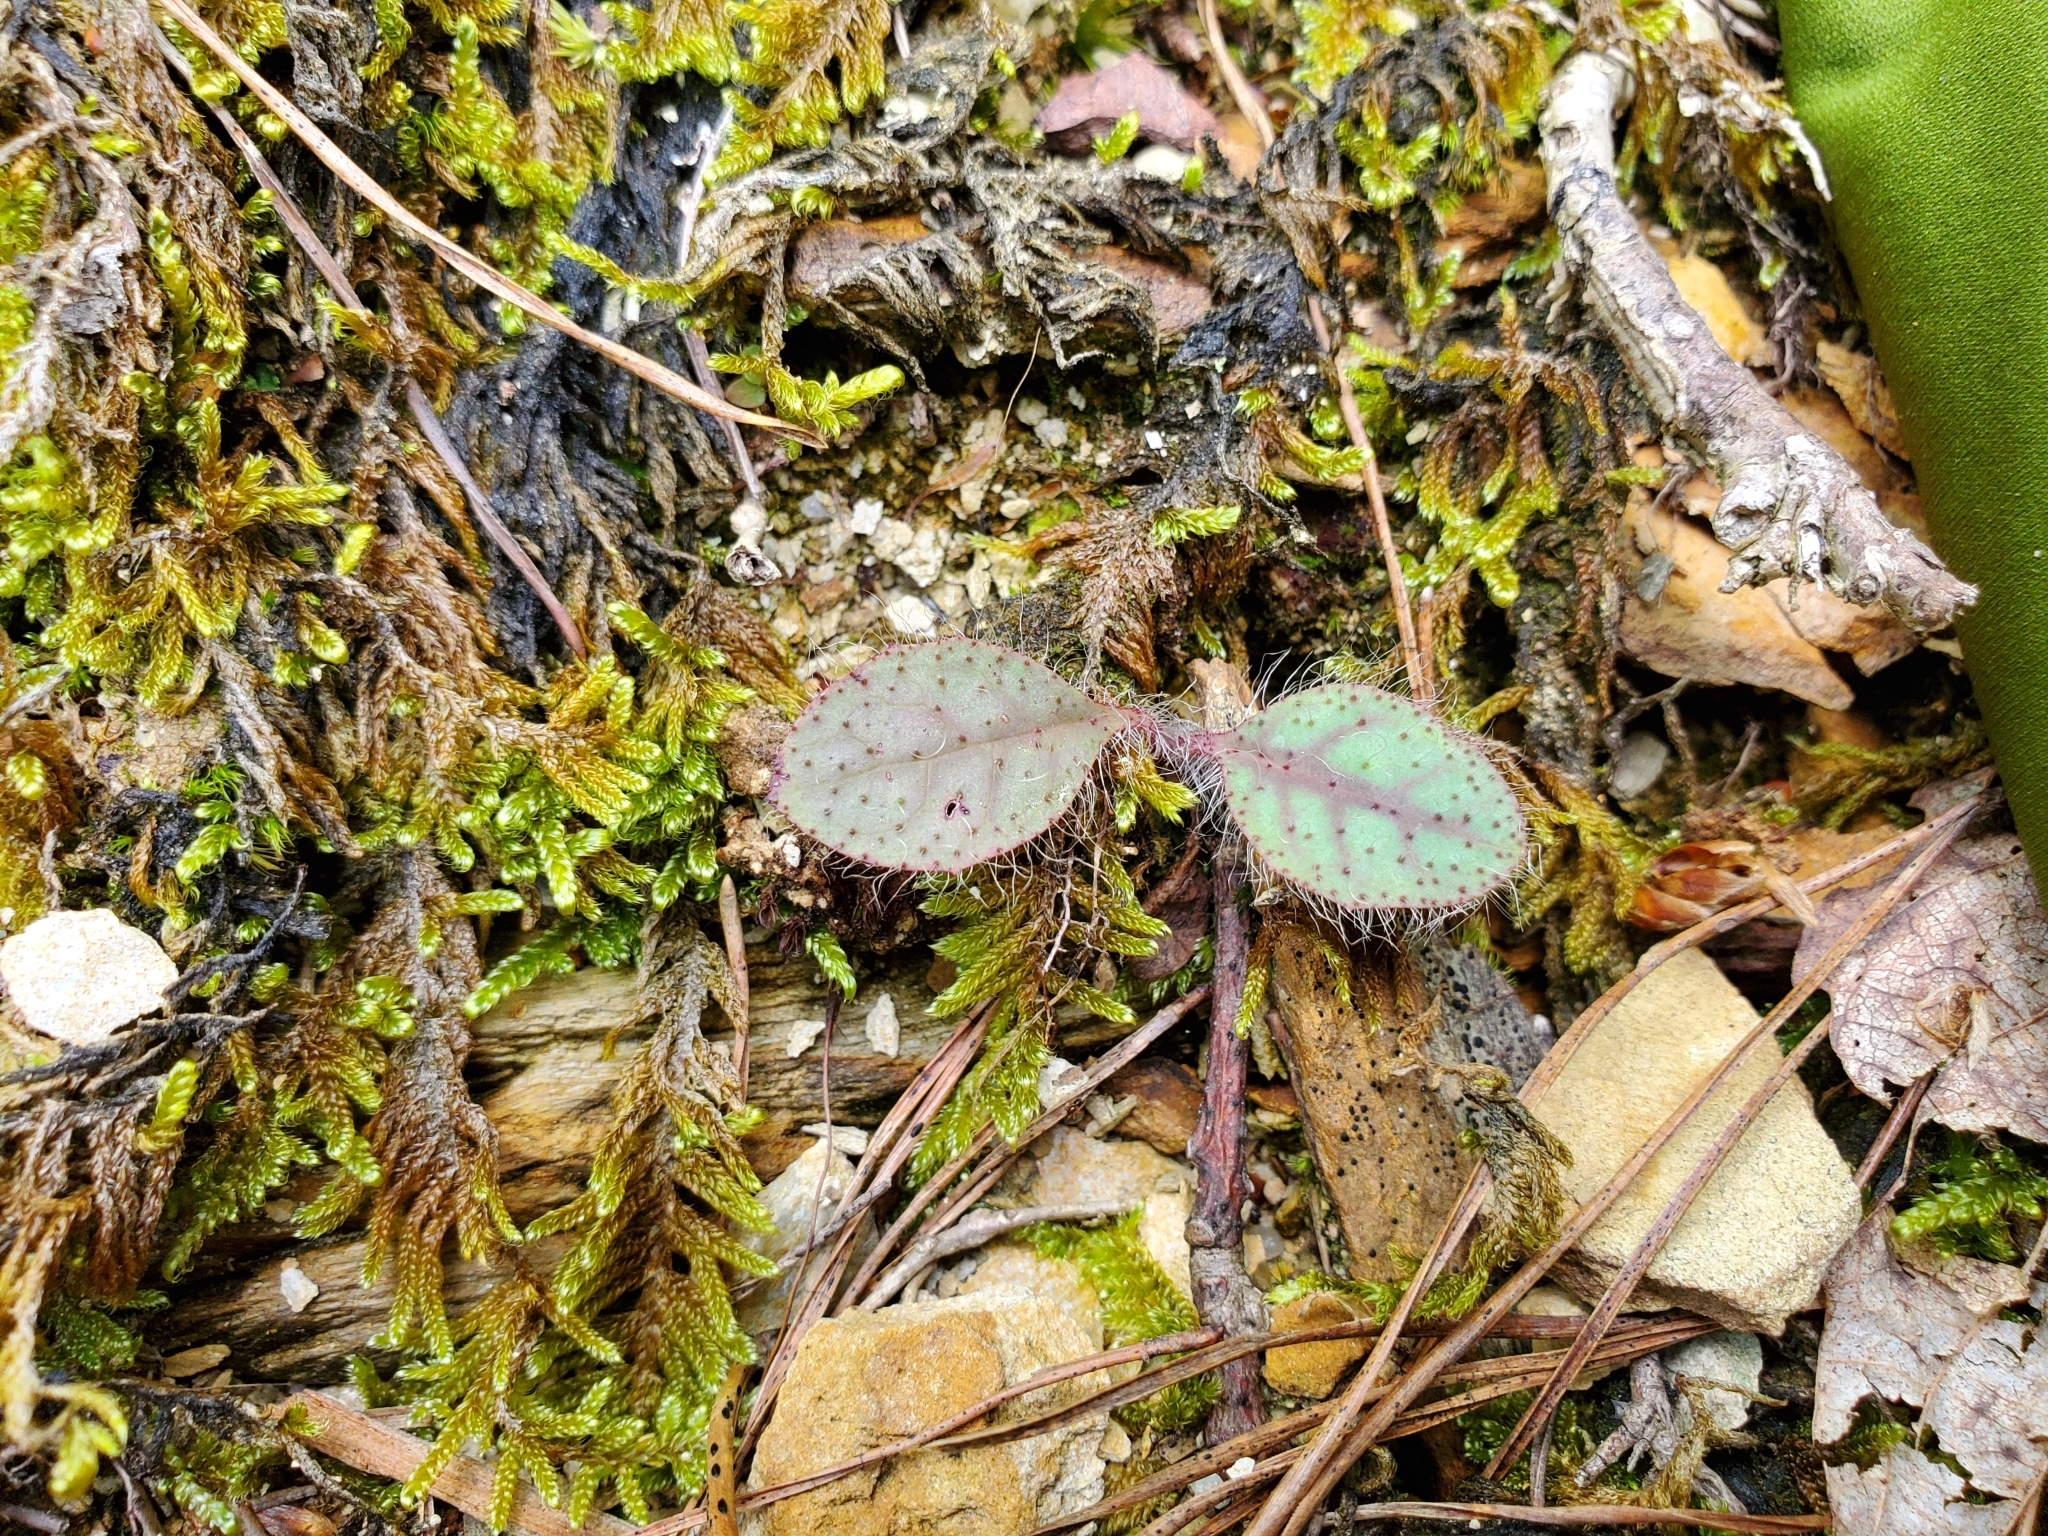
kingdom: Plantae
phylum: Tracheophyta
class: Magnoliopsida
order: Asterales
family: Asteraceae
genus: Hieracium
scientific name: Hieracium venosum
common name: Rattlesnake hawkweed
